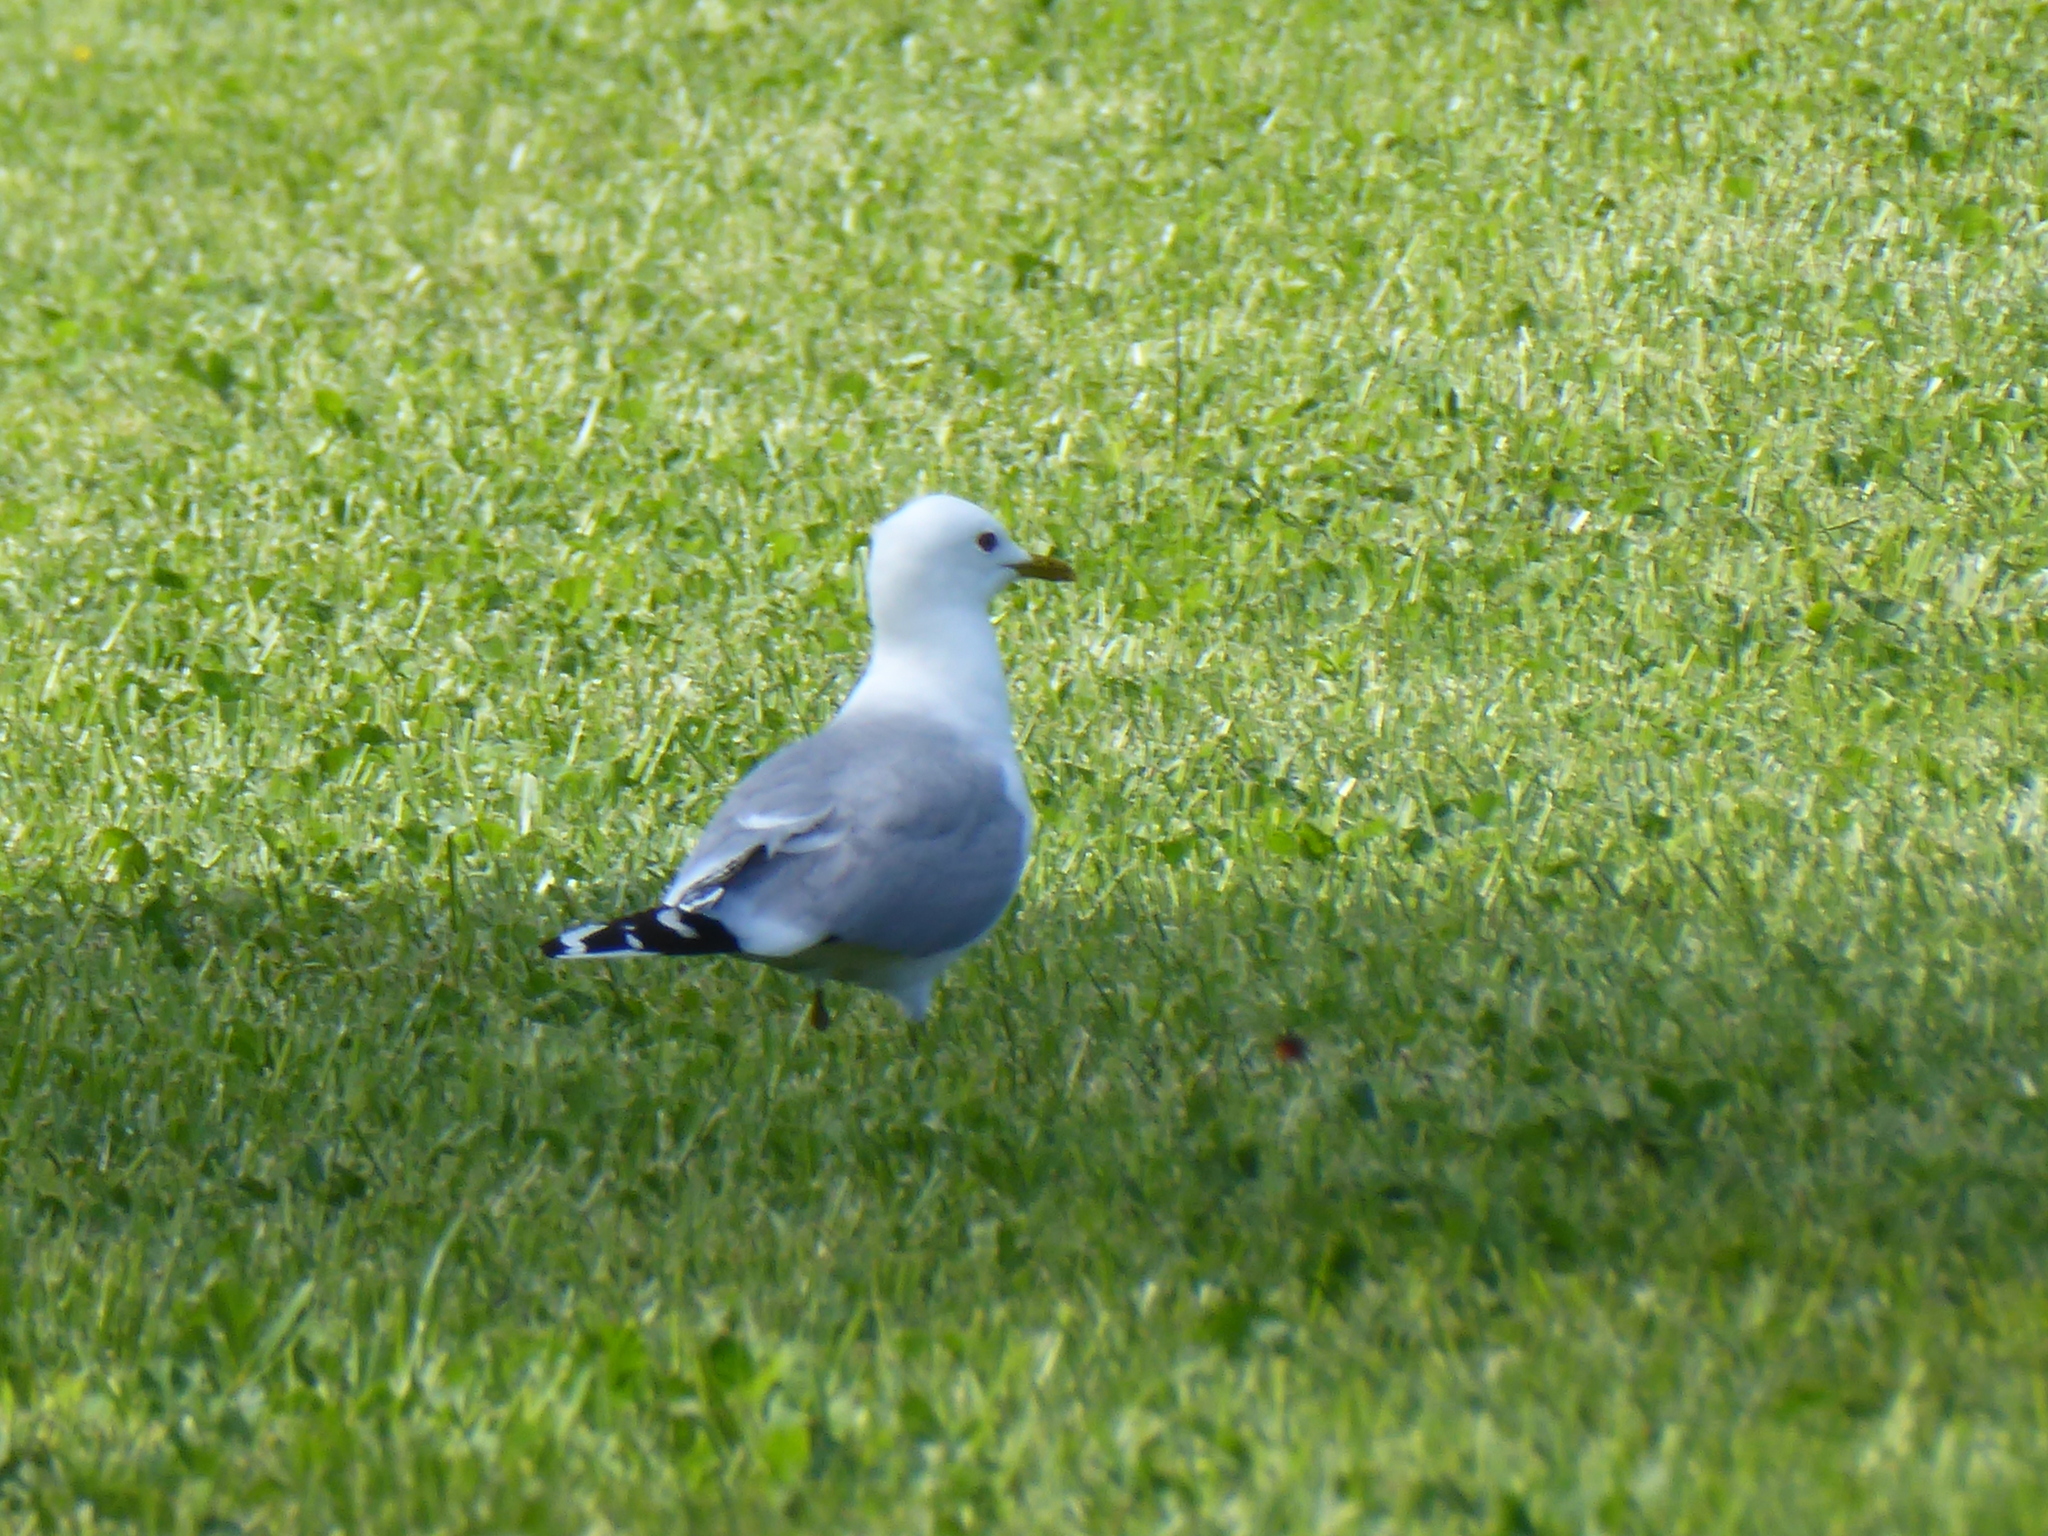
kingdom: Animalia
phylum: Chordata
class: Aves
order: Charadriiformes
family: Laridae
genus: Larus
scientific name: Larus canus
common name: Mew gull
